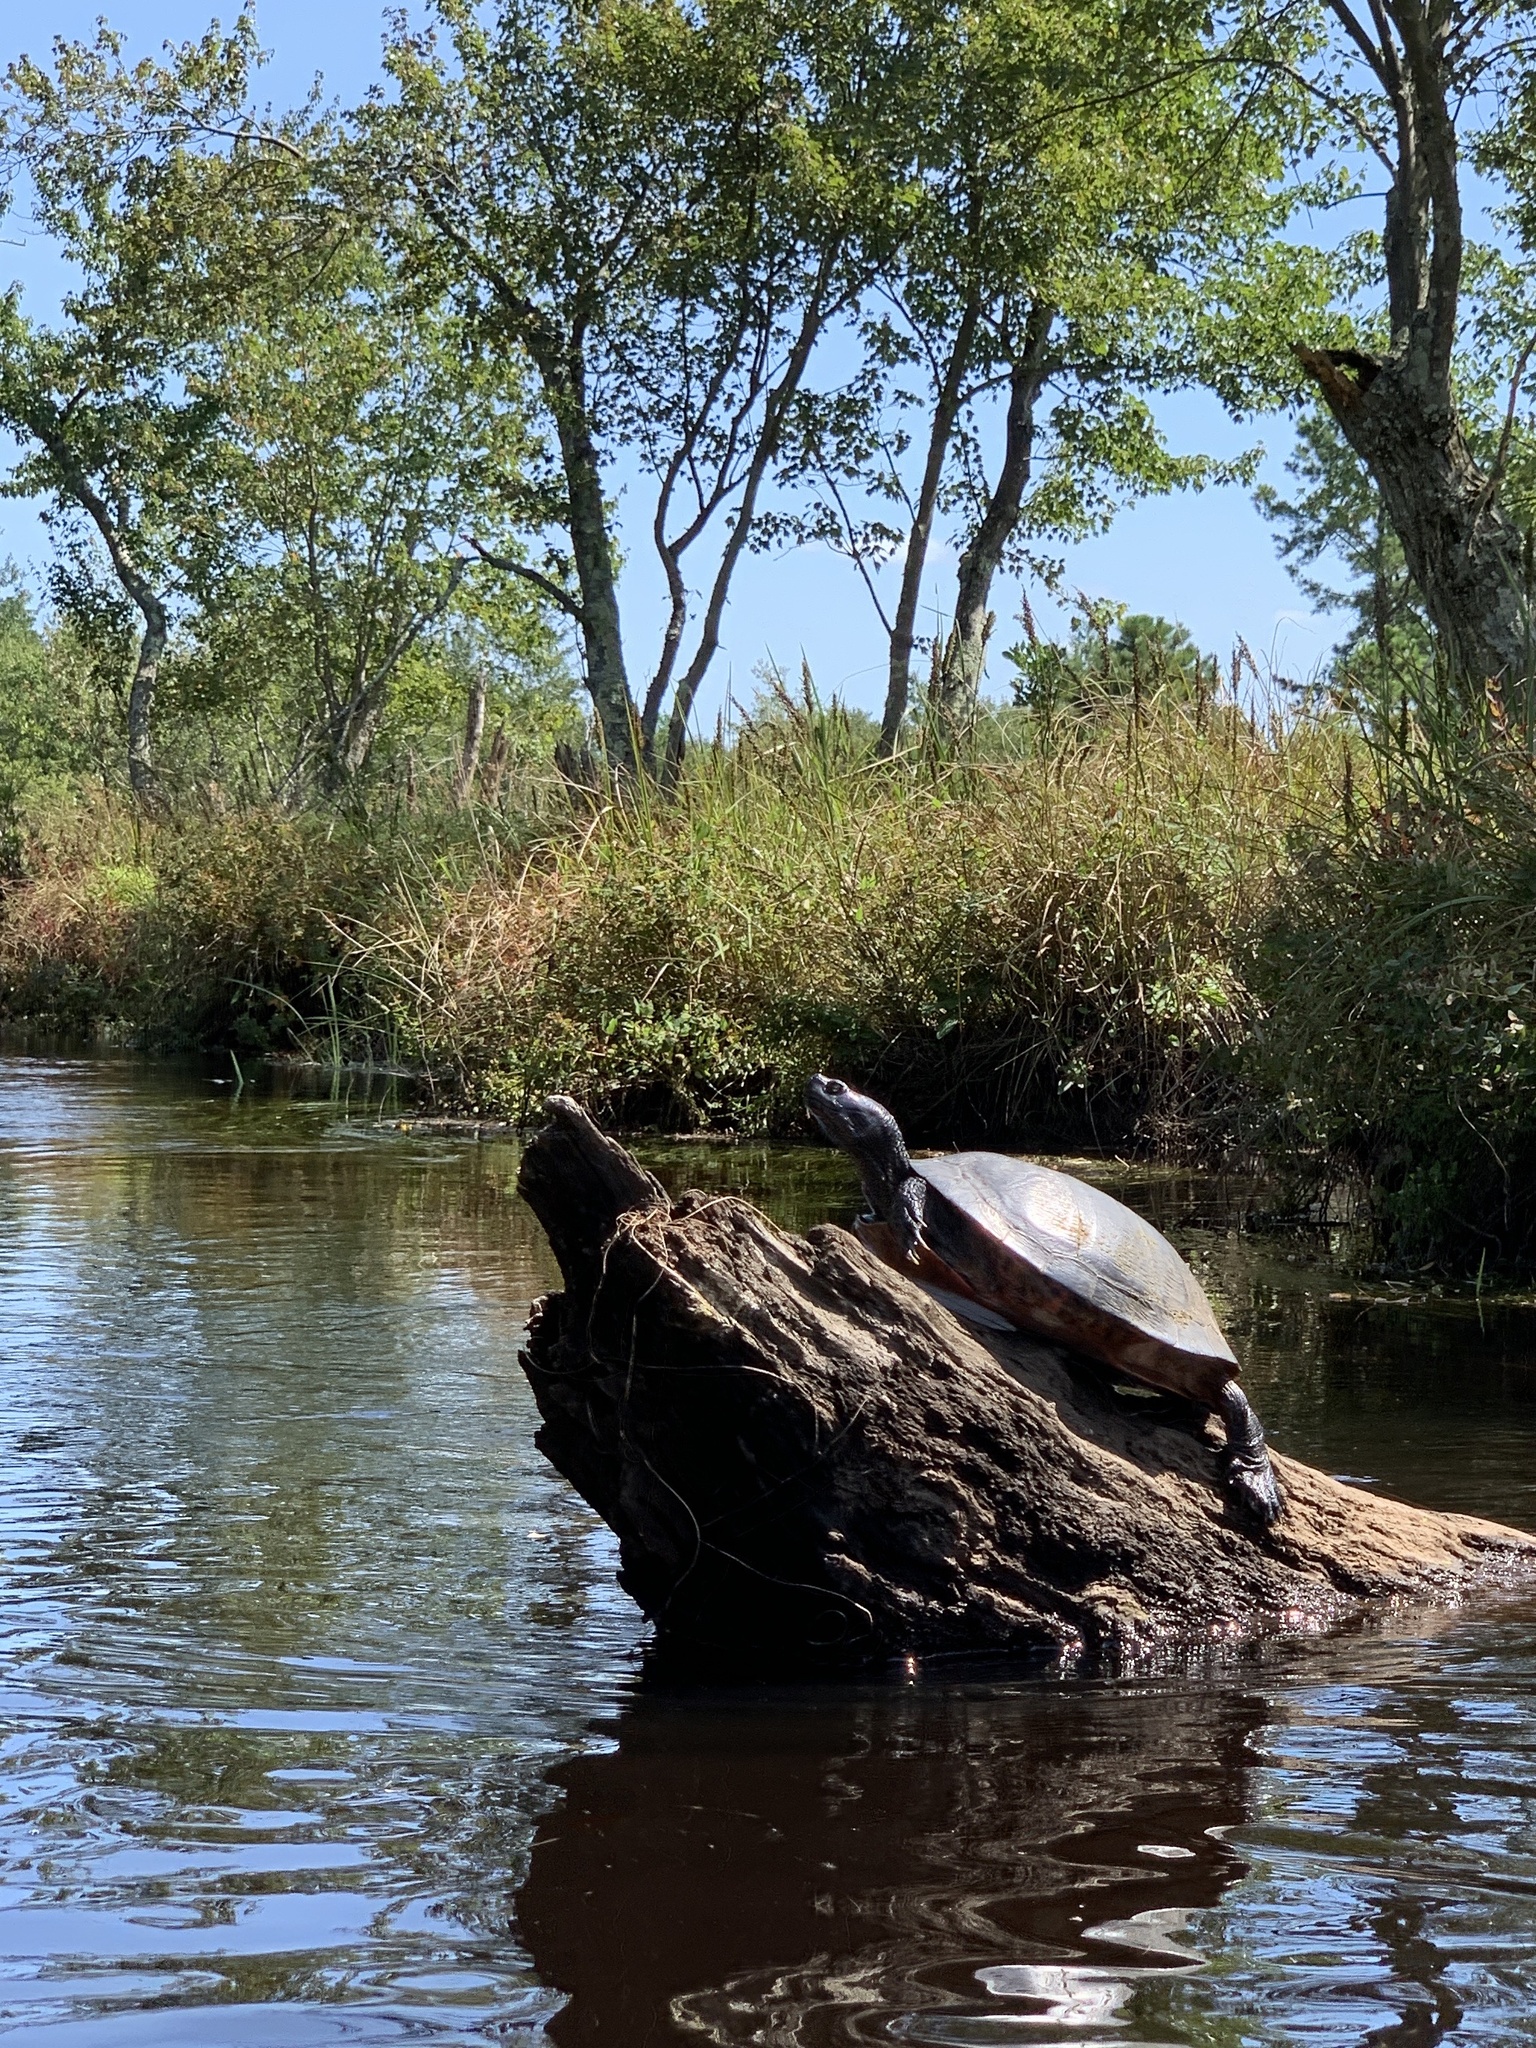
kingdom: Animalia
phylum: Chordata
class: Testudines
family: Emydidae
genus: Pseudemys
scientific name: Pseudemys rubriventris
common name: American red-bellied turtle
